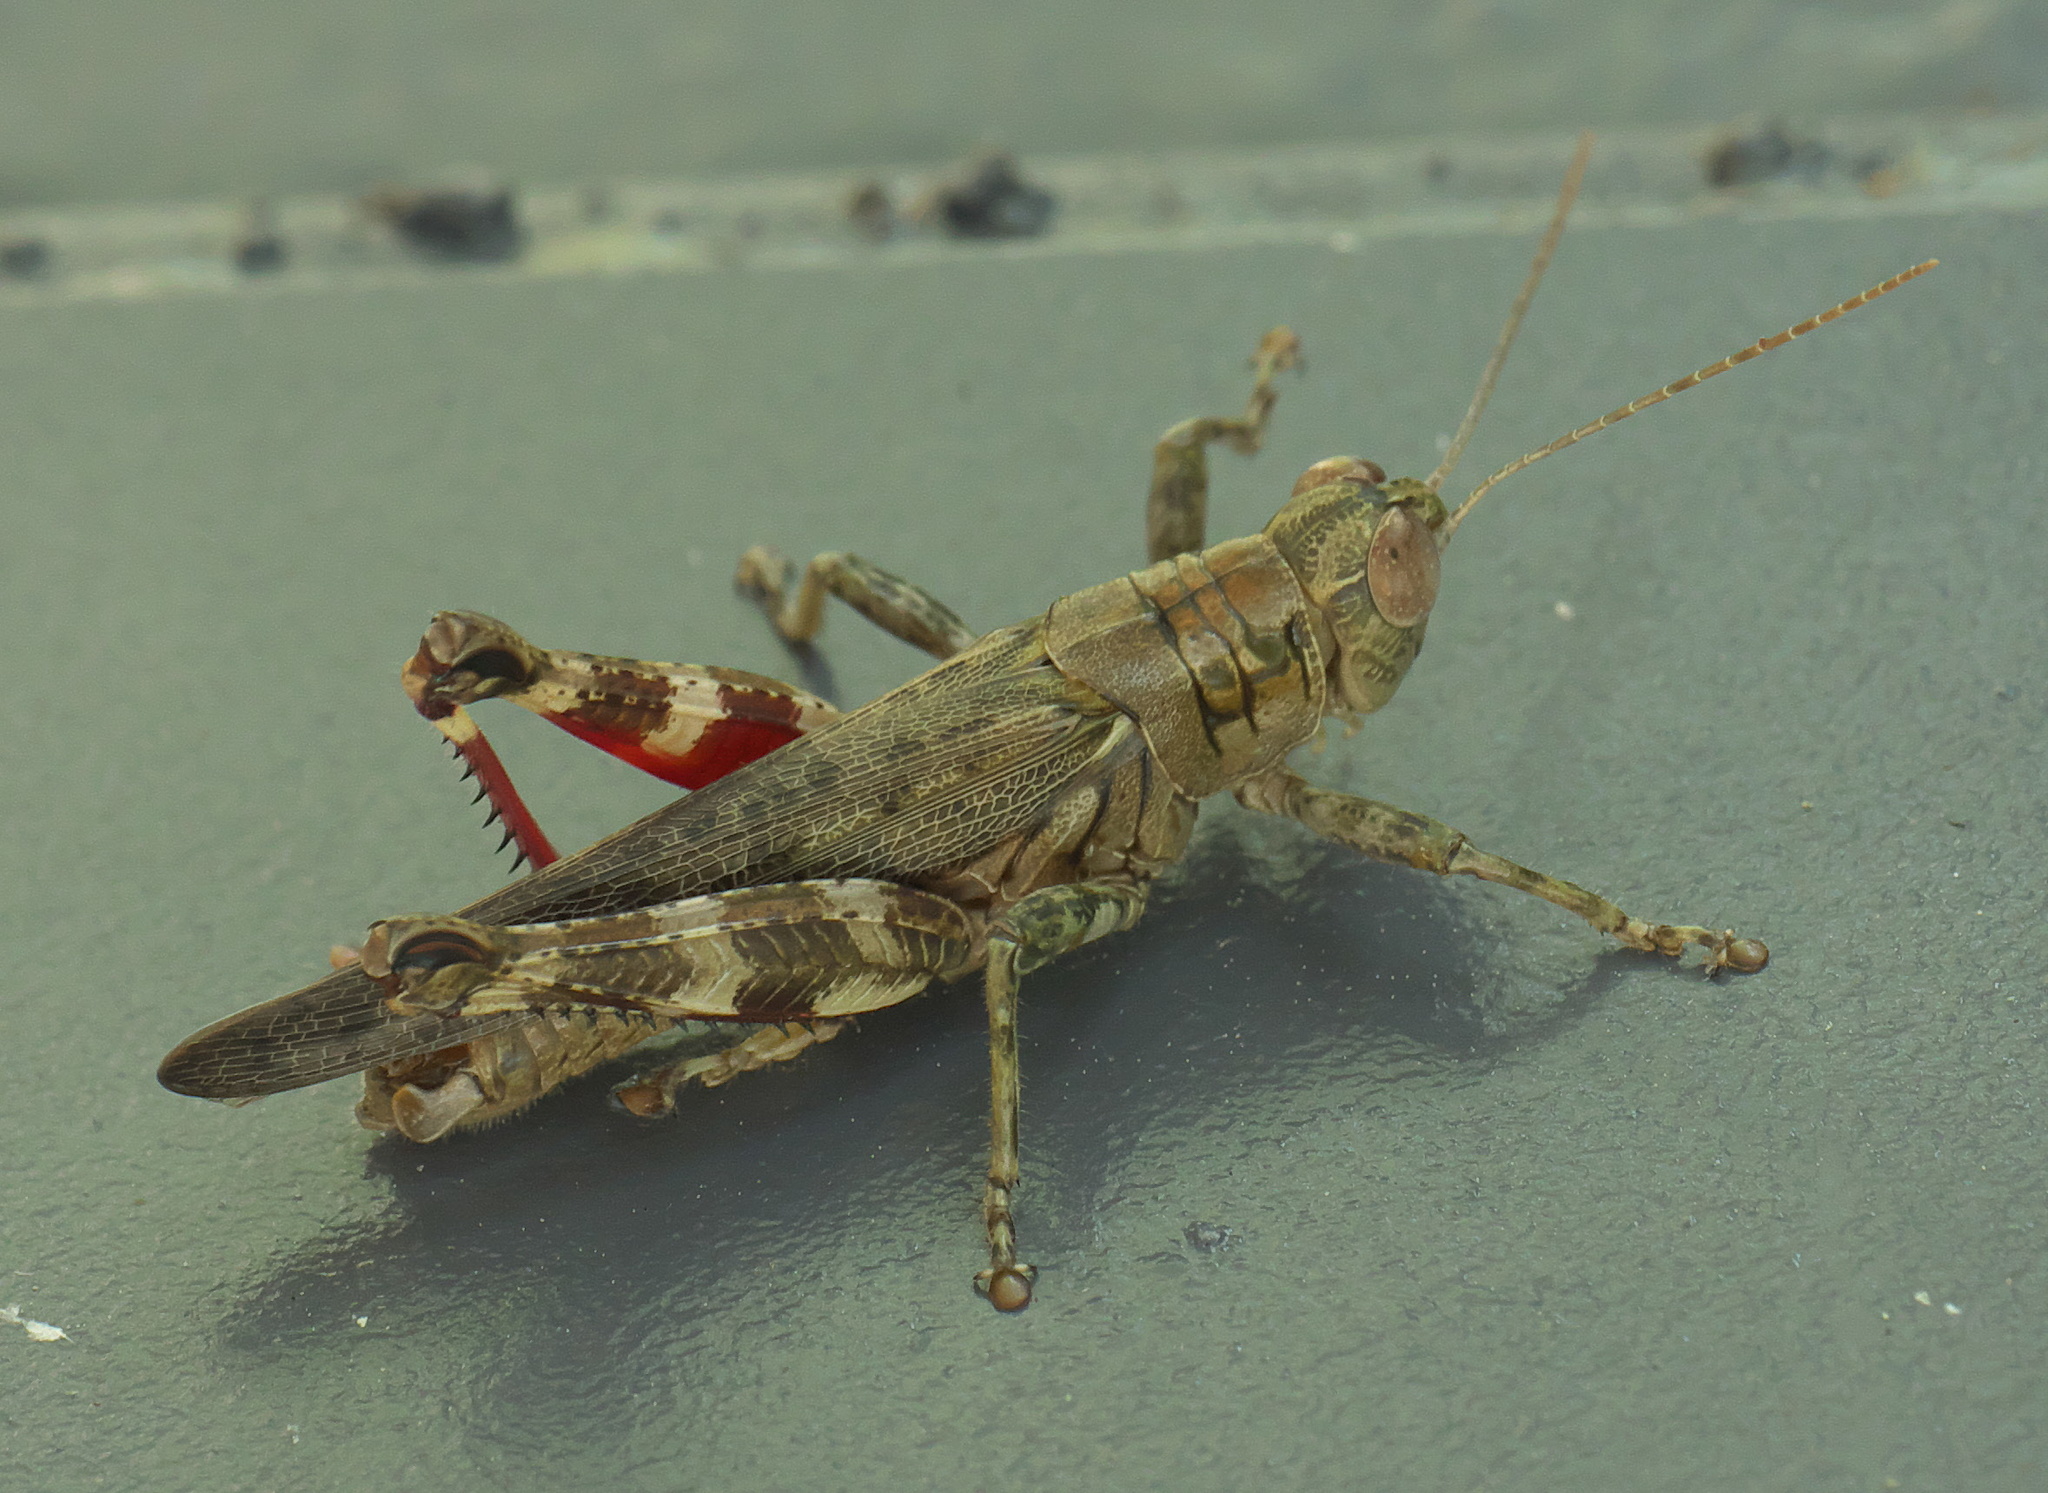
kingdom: Animalia
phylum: Arthropoda
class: Insecta
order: Orthoptera
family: Acrididae
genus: Melanoplus
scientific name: Melanoplus punctulatus
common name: Pine-tree spur-throat grasshopper
